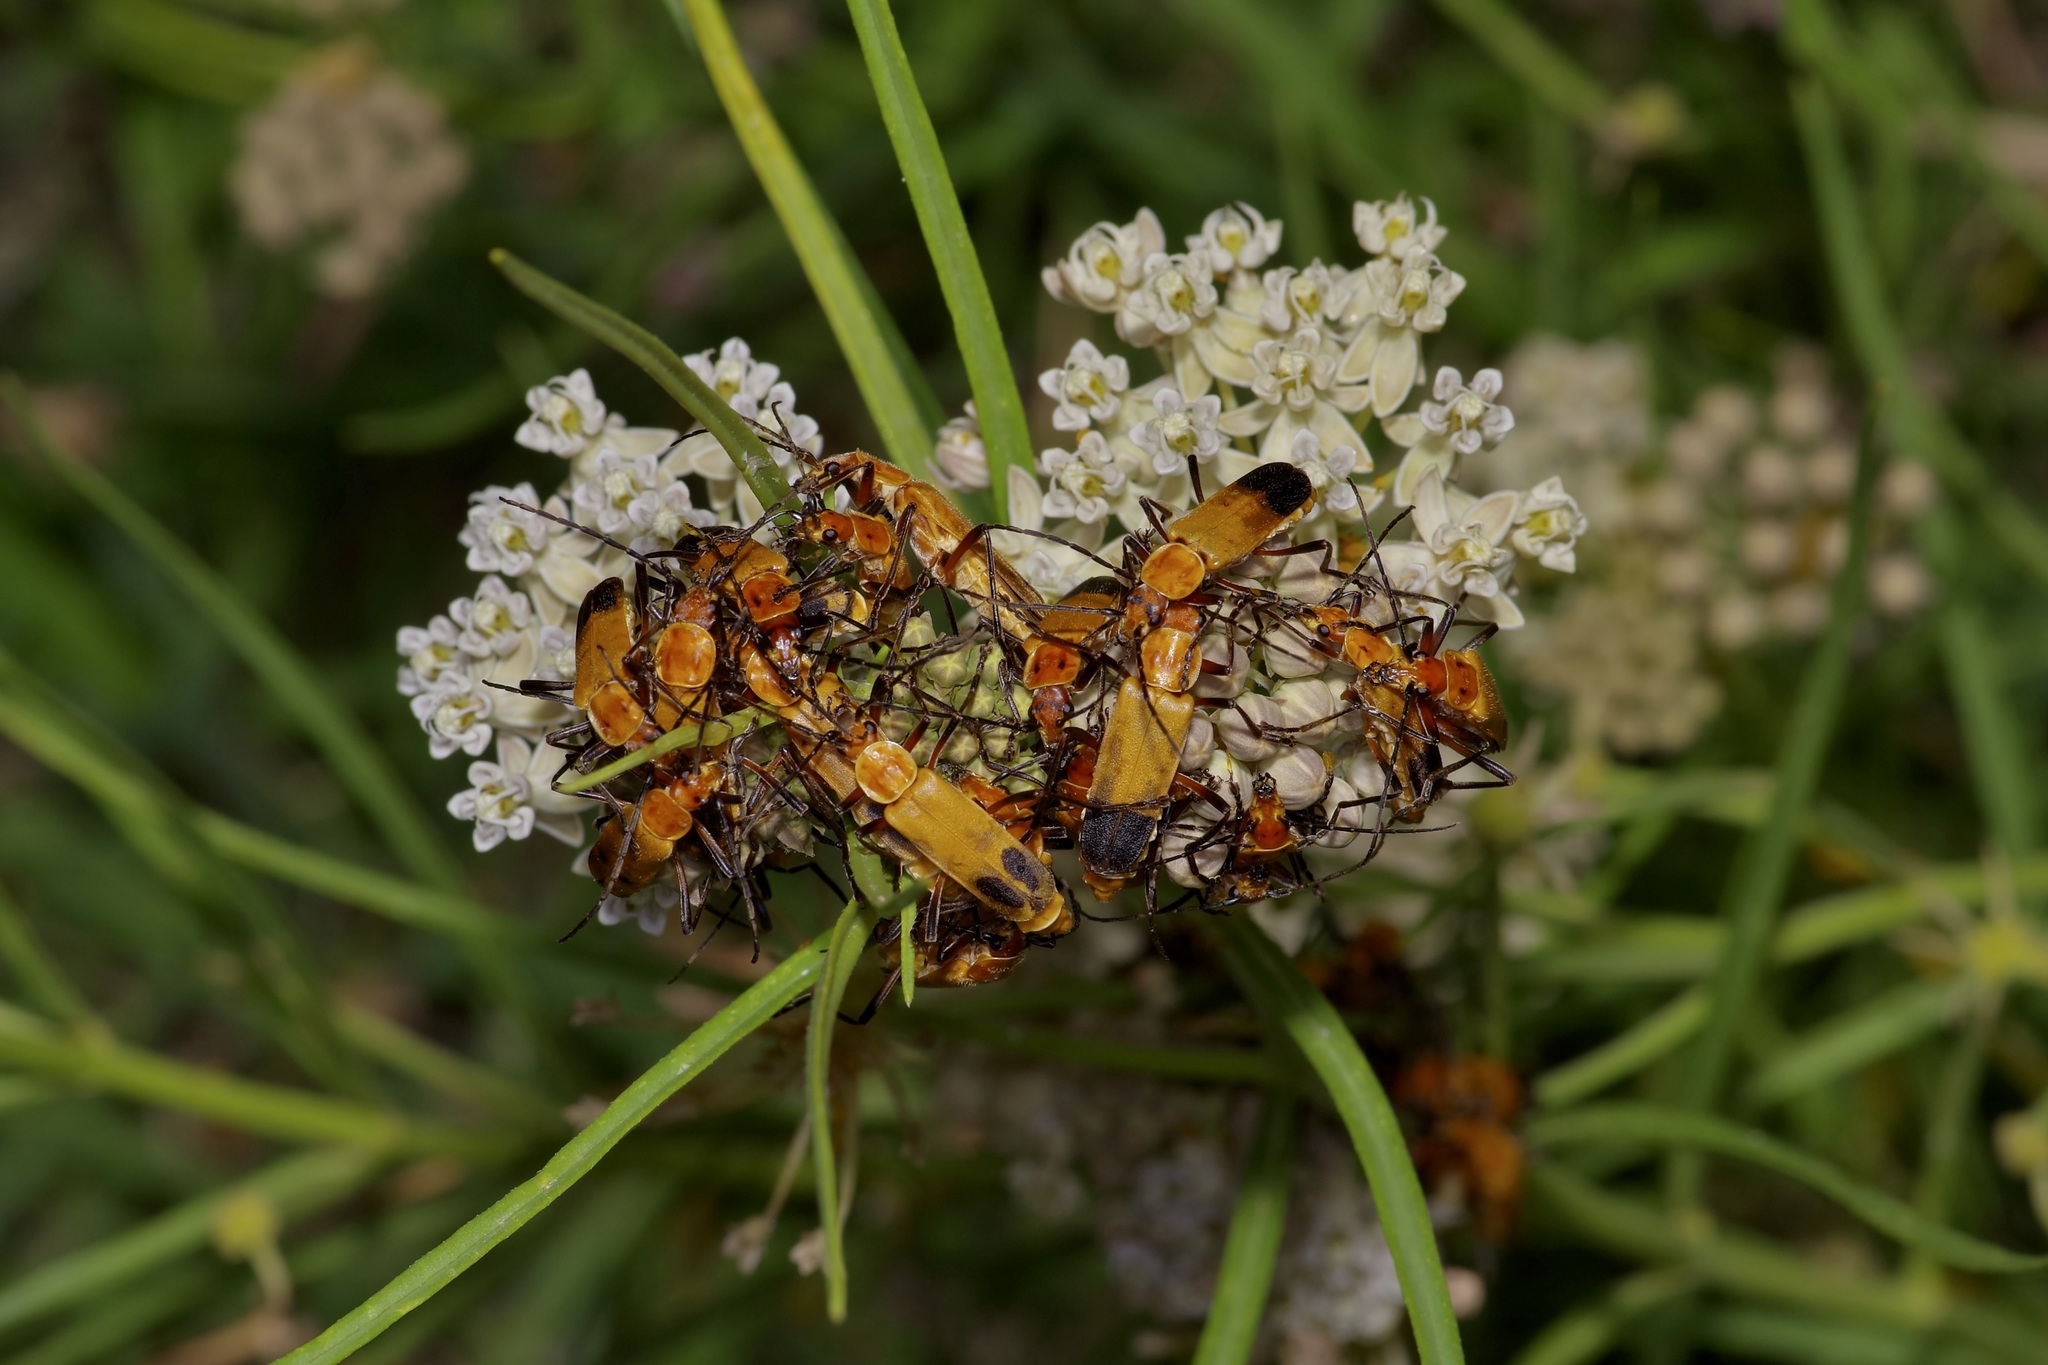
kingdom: Animalia
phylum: Arthropoda
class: Insecta
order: Coleoptera
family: Cantharidae
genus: Chauliognathus
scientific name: Chauliognathus discus
